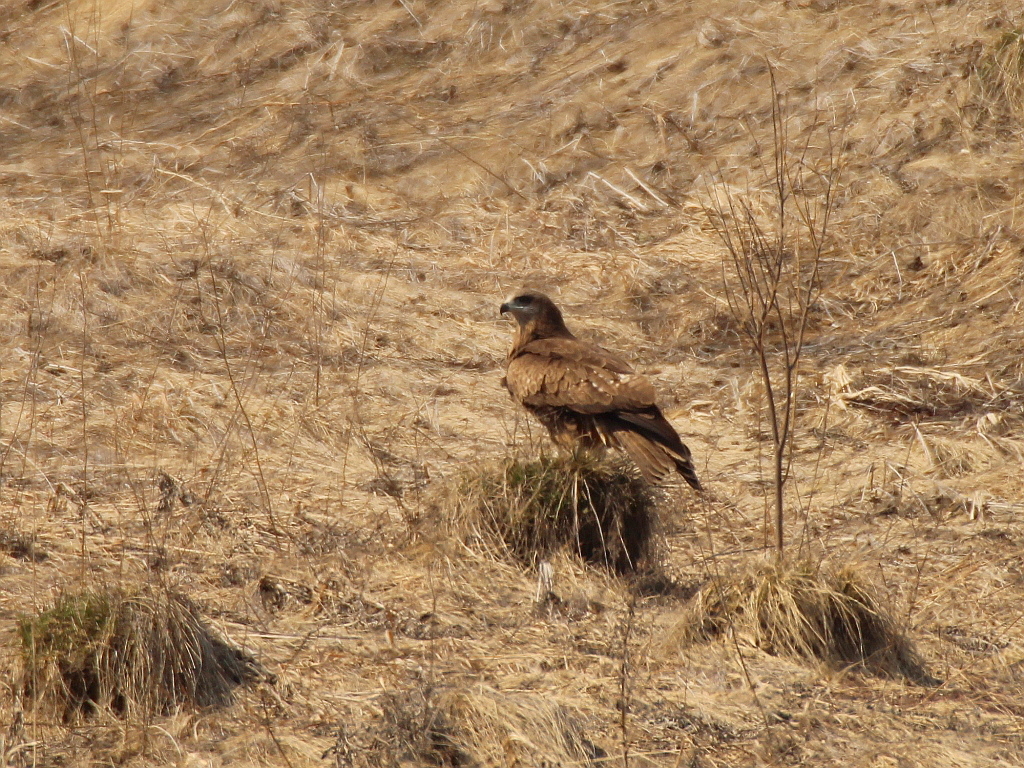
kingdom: Animalia
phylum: Chordata
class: Aves
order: Accipitriformes
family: Accipitridae
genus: Milvus
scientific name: Milvus migrans
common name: Black kite
